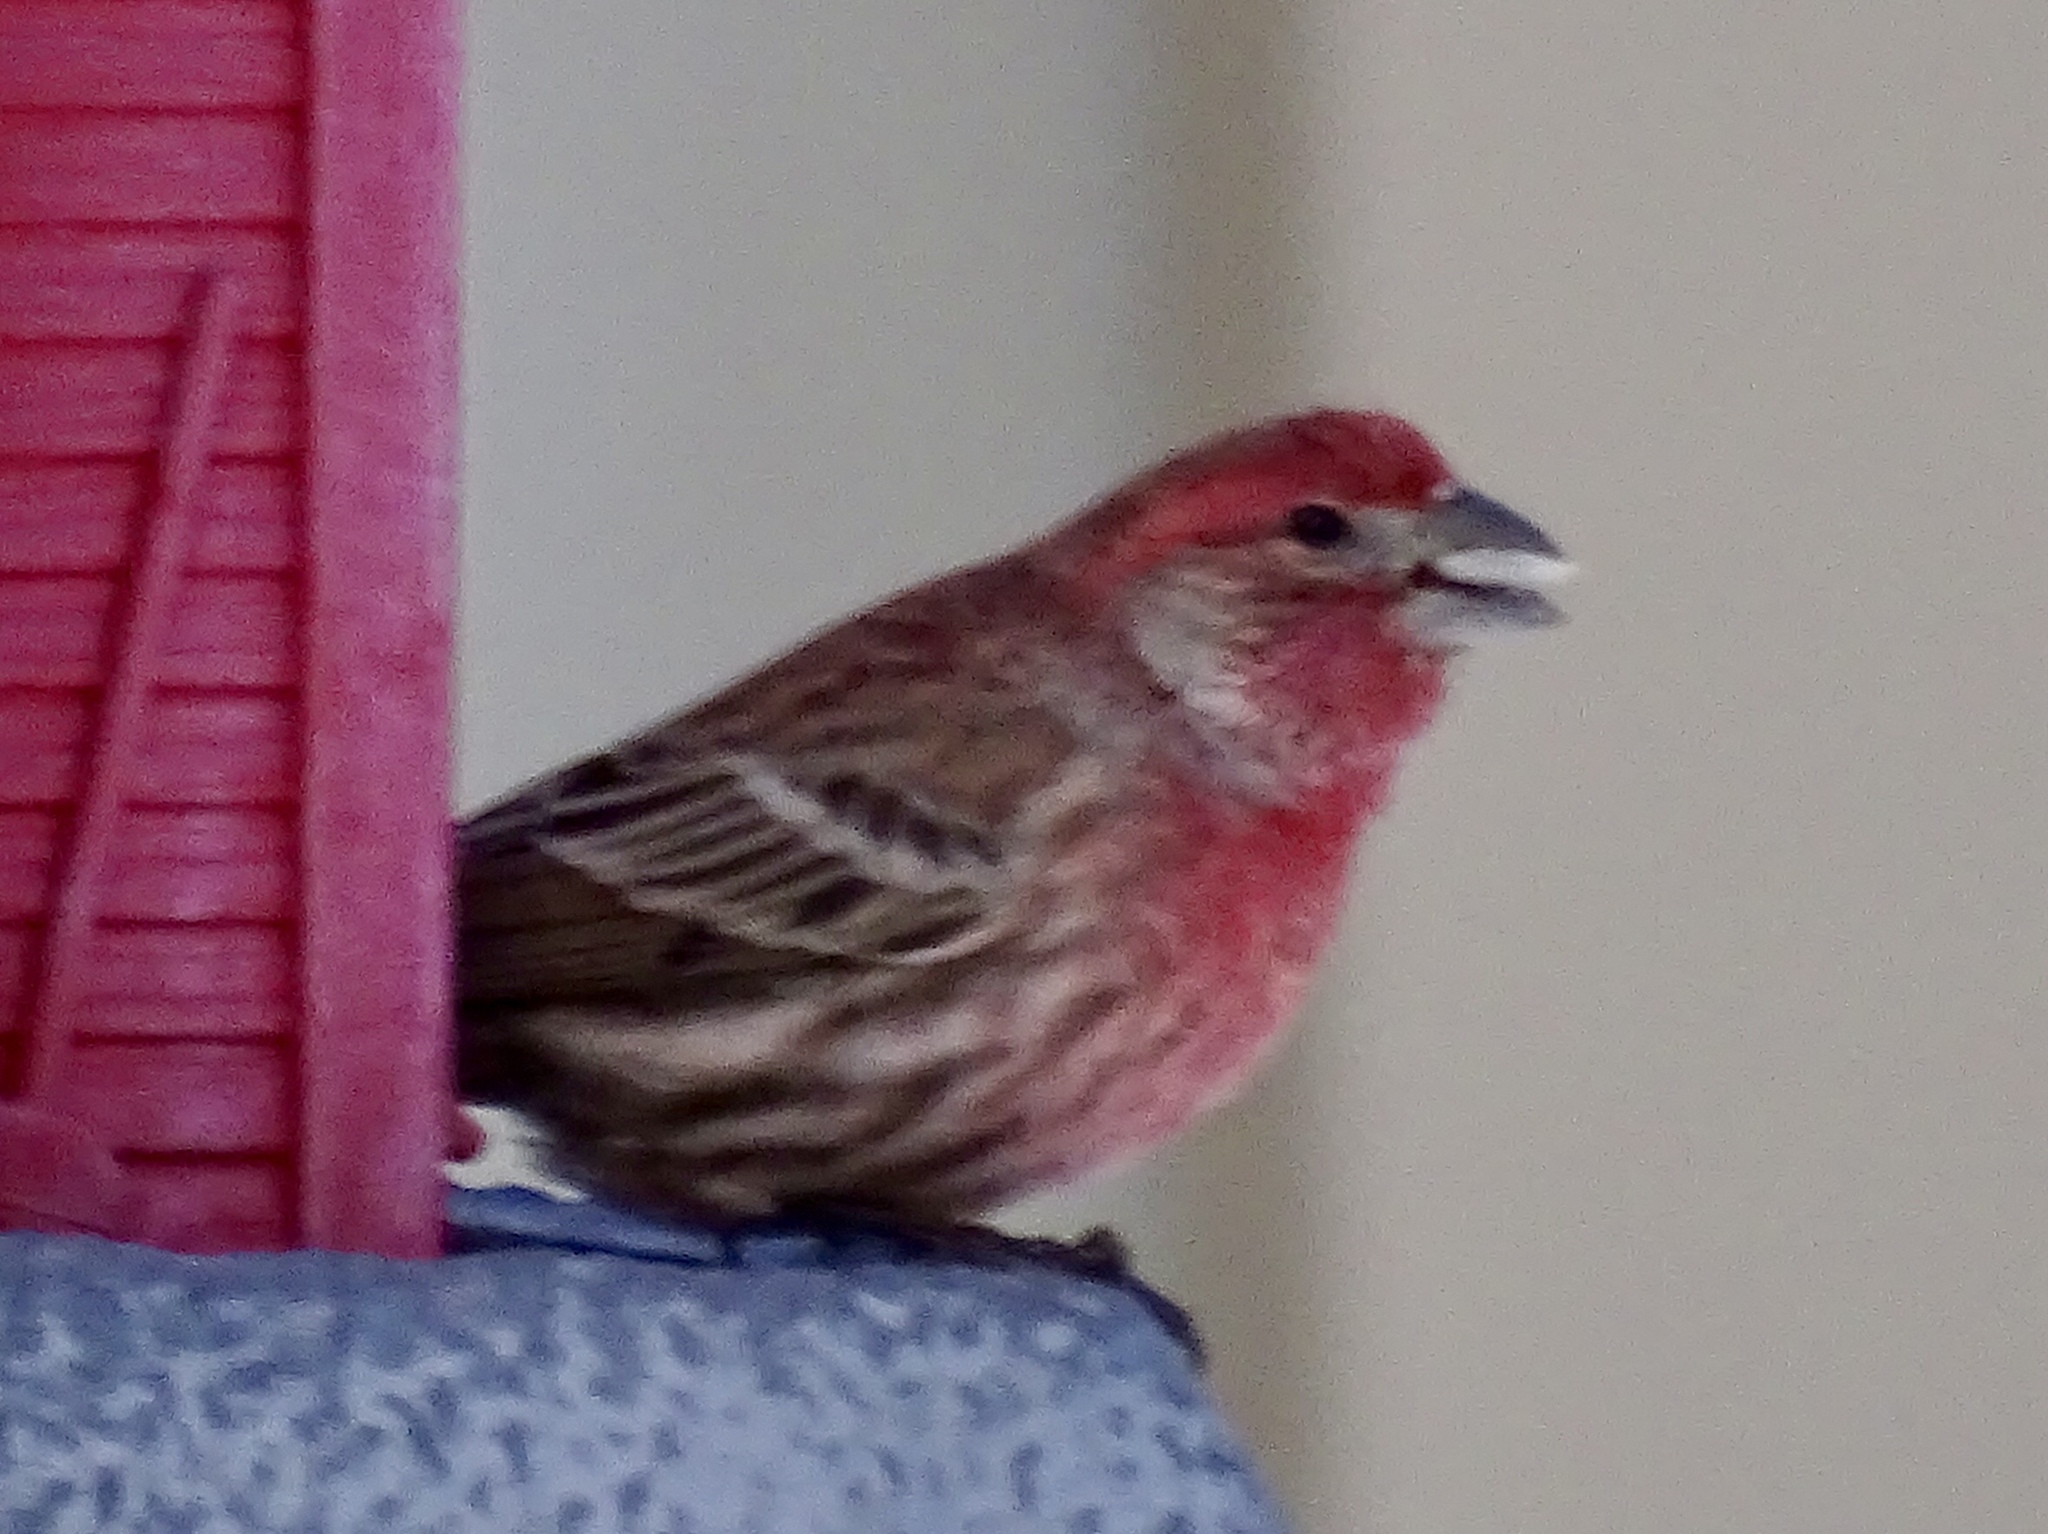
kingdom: Animalia
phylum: Chordata
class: Aves
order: Passeriformes
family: Fringillidae
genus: Haemorhous
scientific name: Haemorhous mexicanus
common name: House finch
